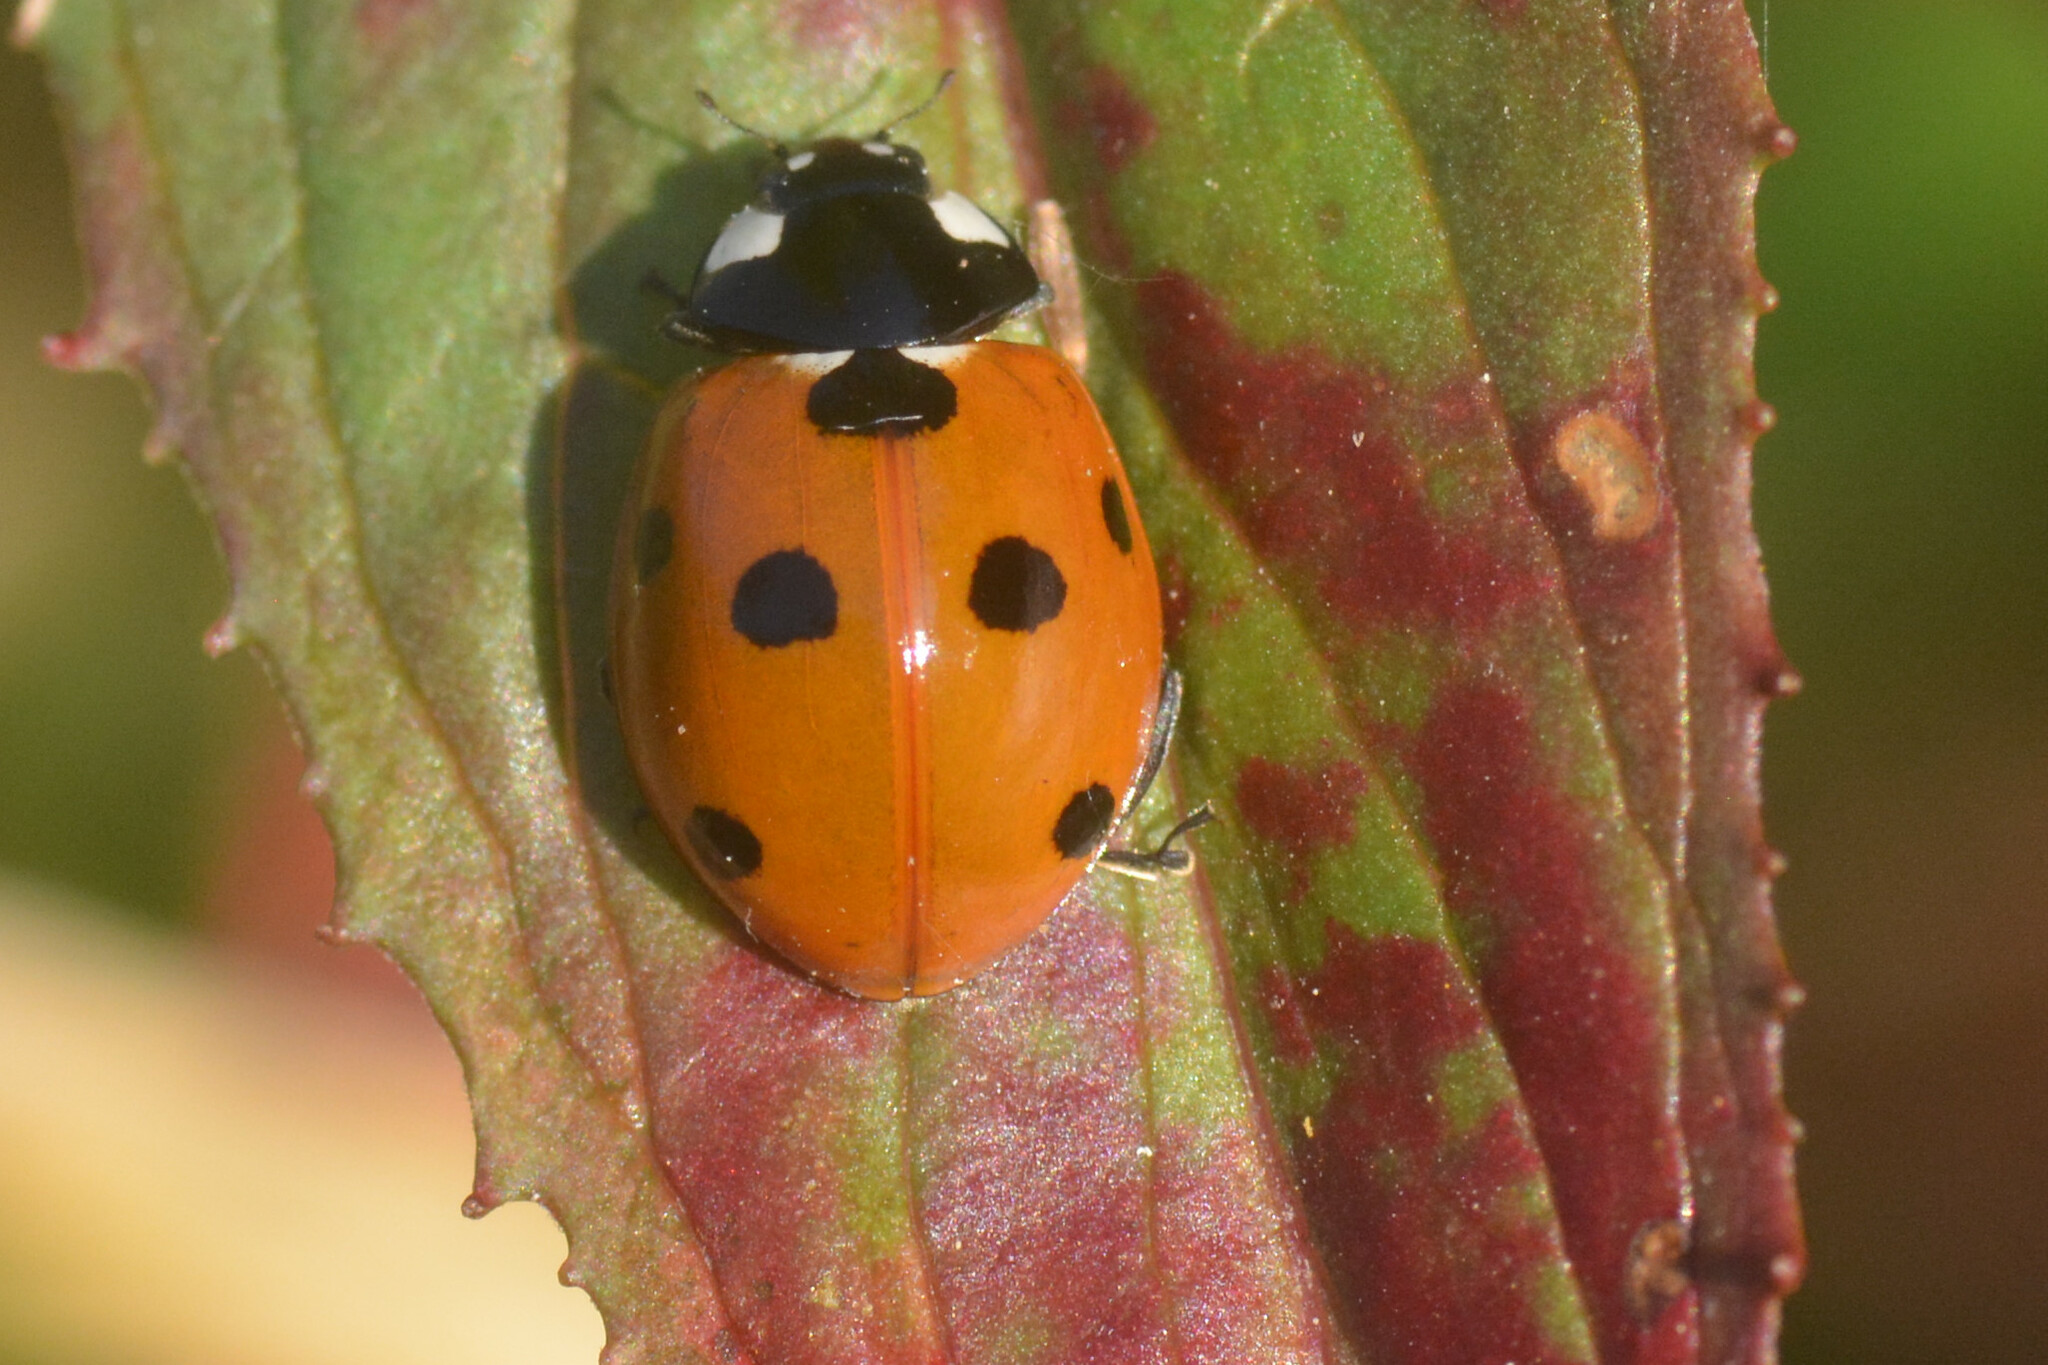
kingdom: Animalia
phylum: Arthropoda
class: Insecta
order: Coleoptera
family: Coccinellidae
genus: Coccinella
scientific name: Coccinella septempunctata
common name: Sevenspotted lady beetle
